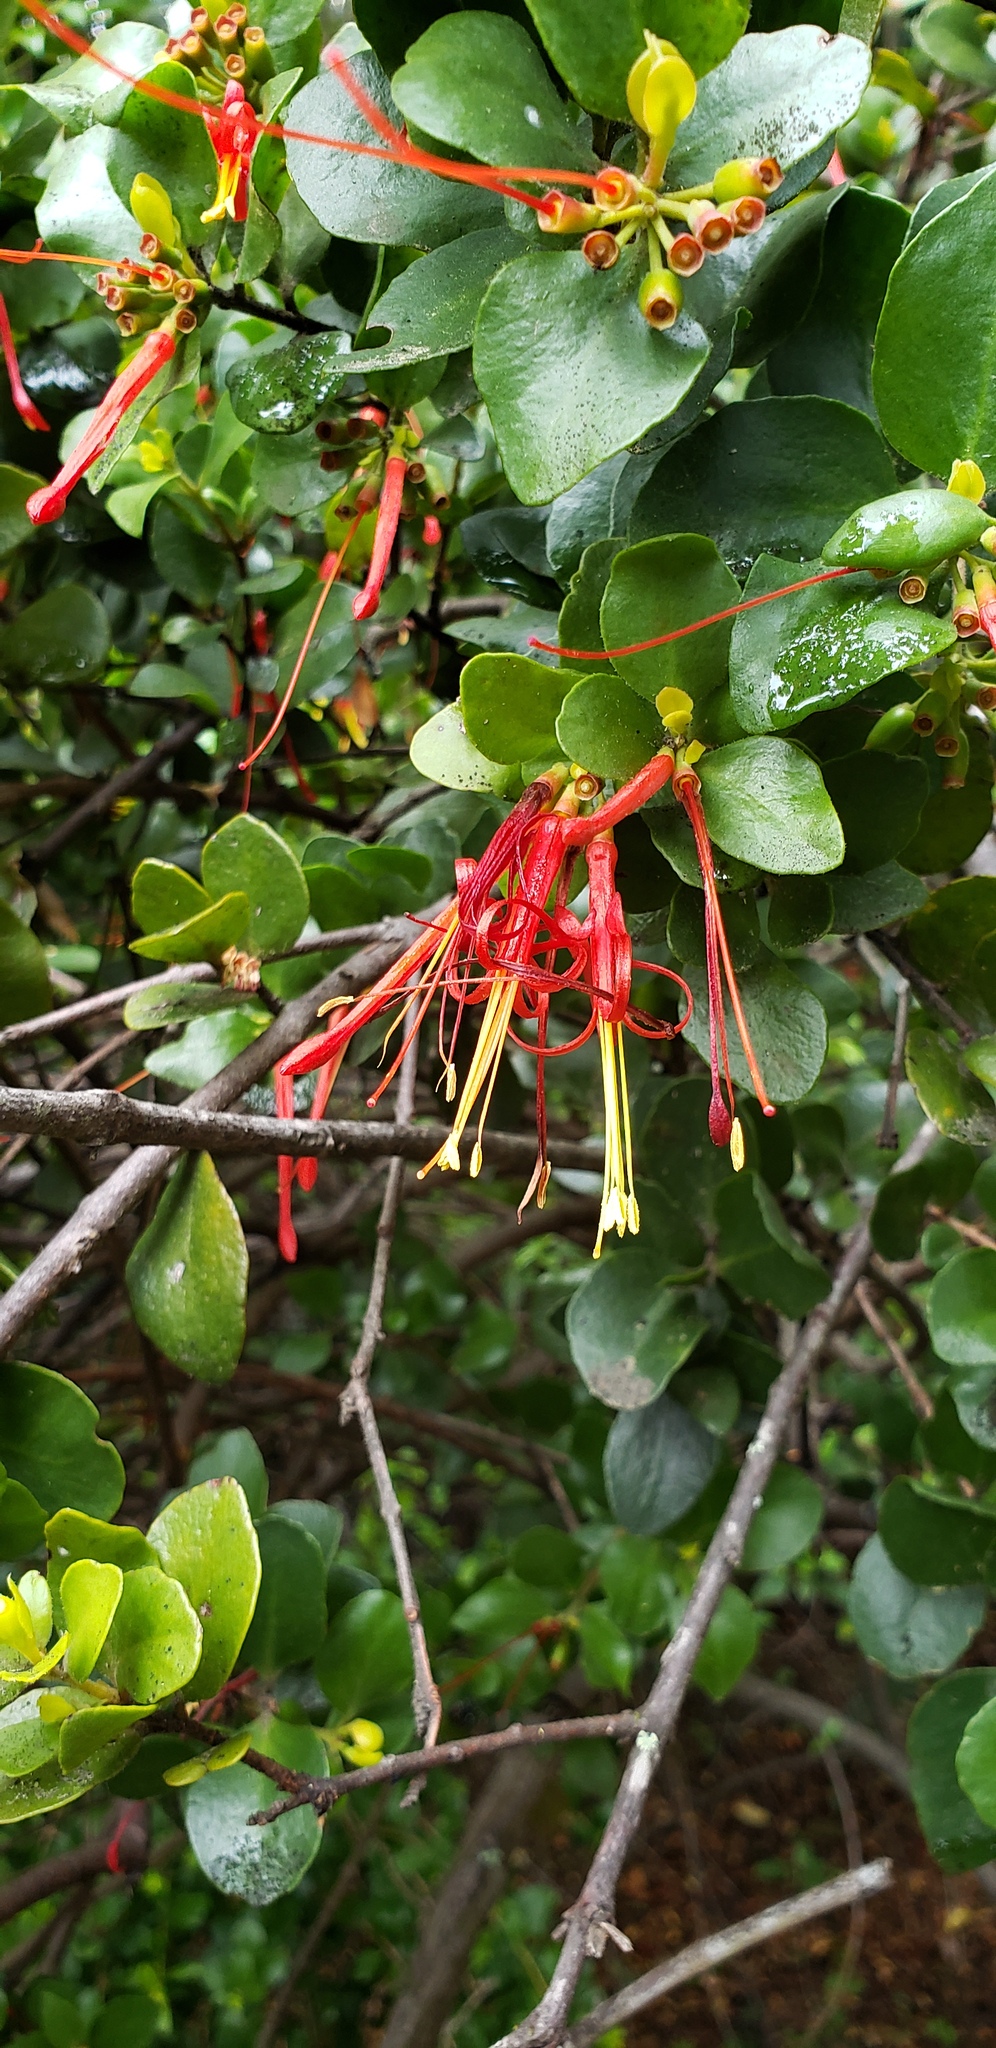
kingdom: Plantae
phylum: Tracheophyta
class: Magnoliopsida
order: Santalales
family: Loranthaceae
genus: Tristerix
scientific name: Tristerix corymbosus
